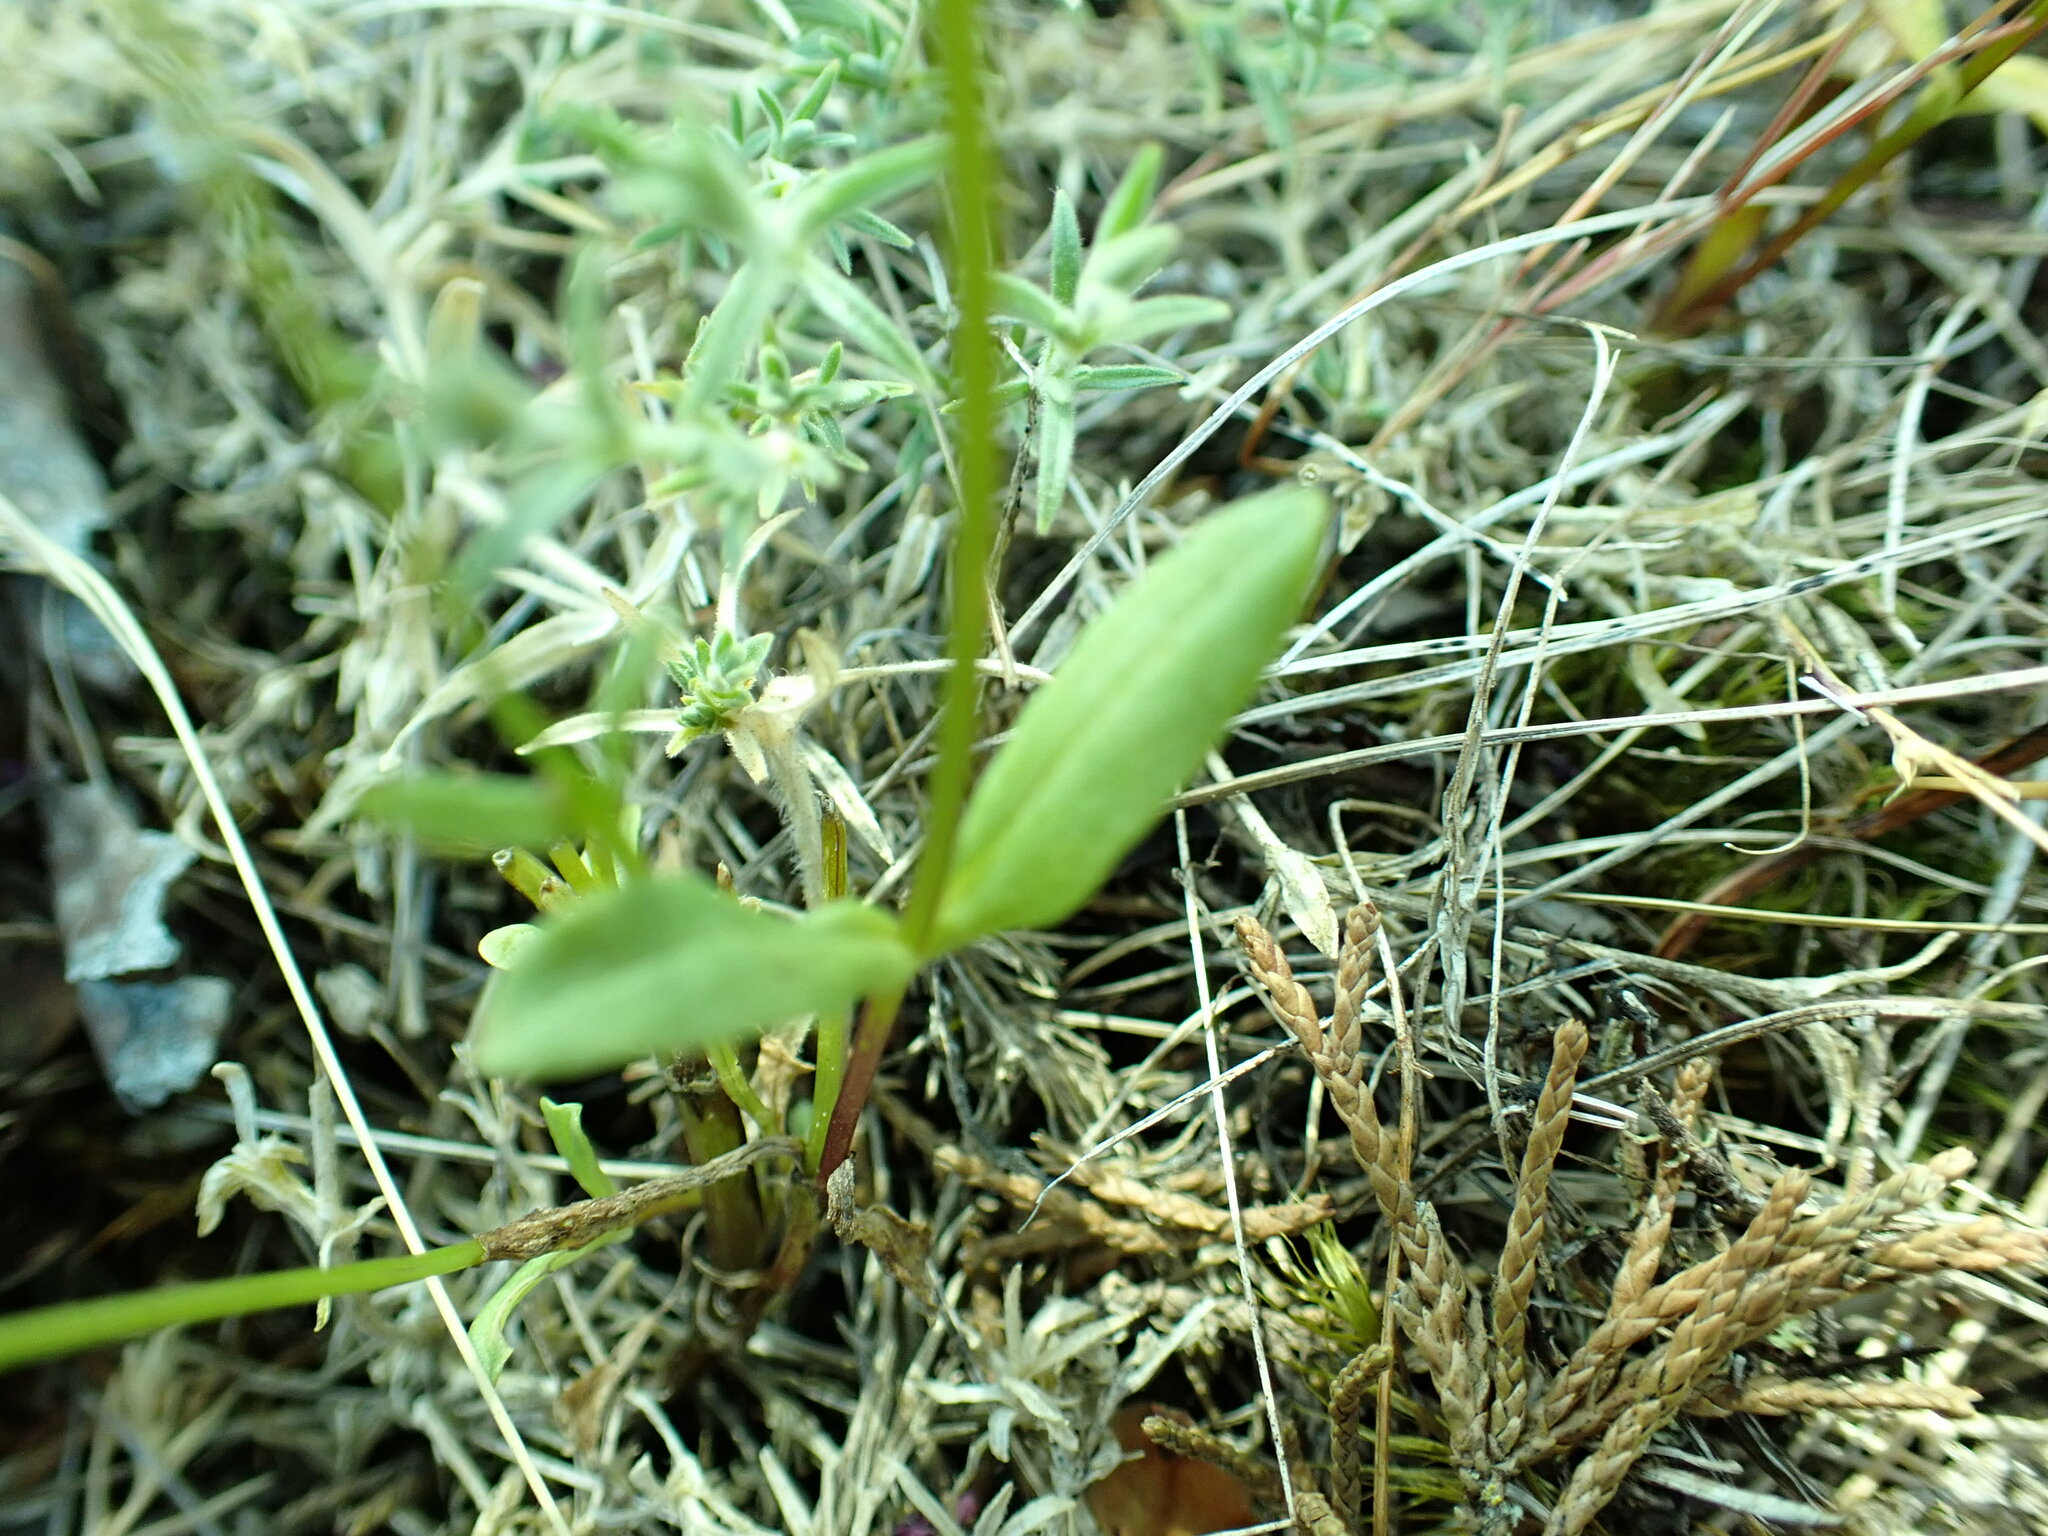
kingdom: Plantae
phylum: Tracheophyta
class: Magnoliopsida
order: Dipsacales
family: Caprifoliaceae
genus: Plectritis
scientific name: Plectritis congesta
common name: Pink plectritis
